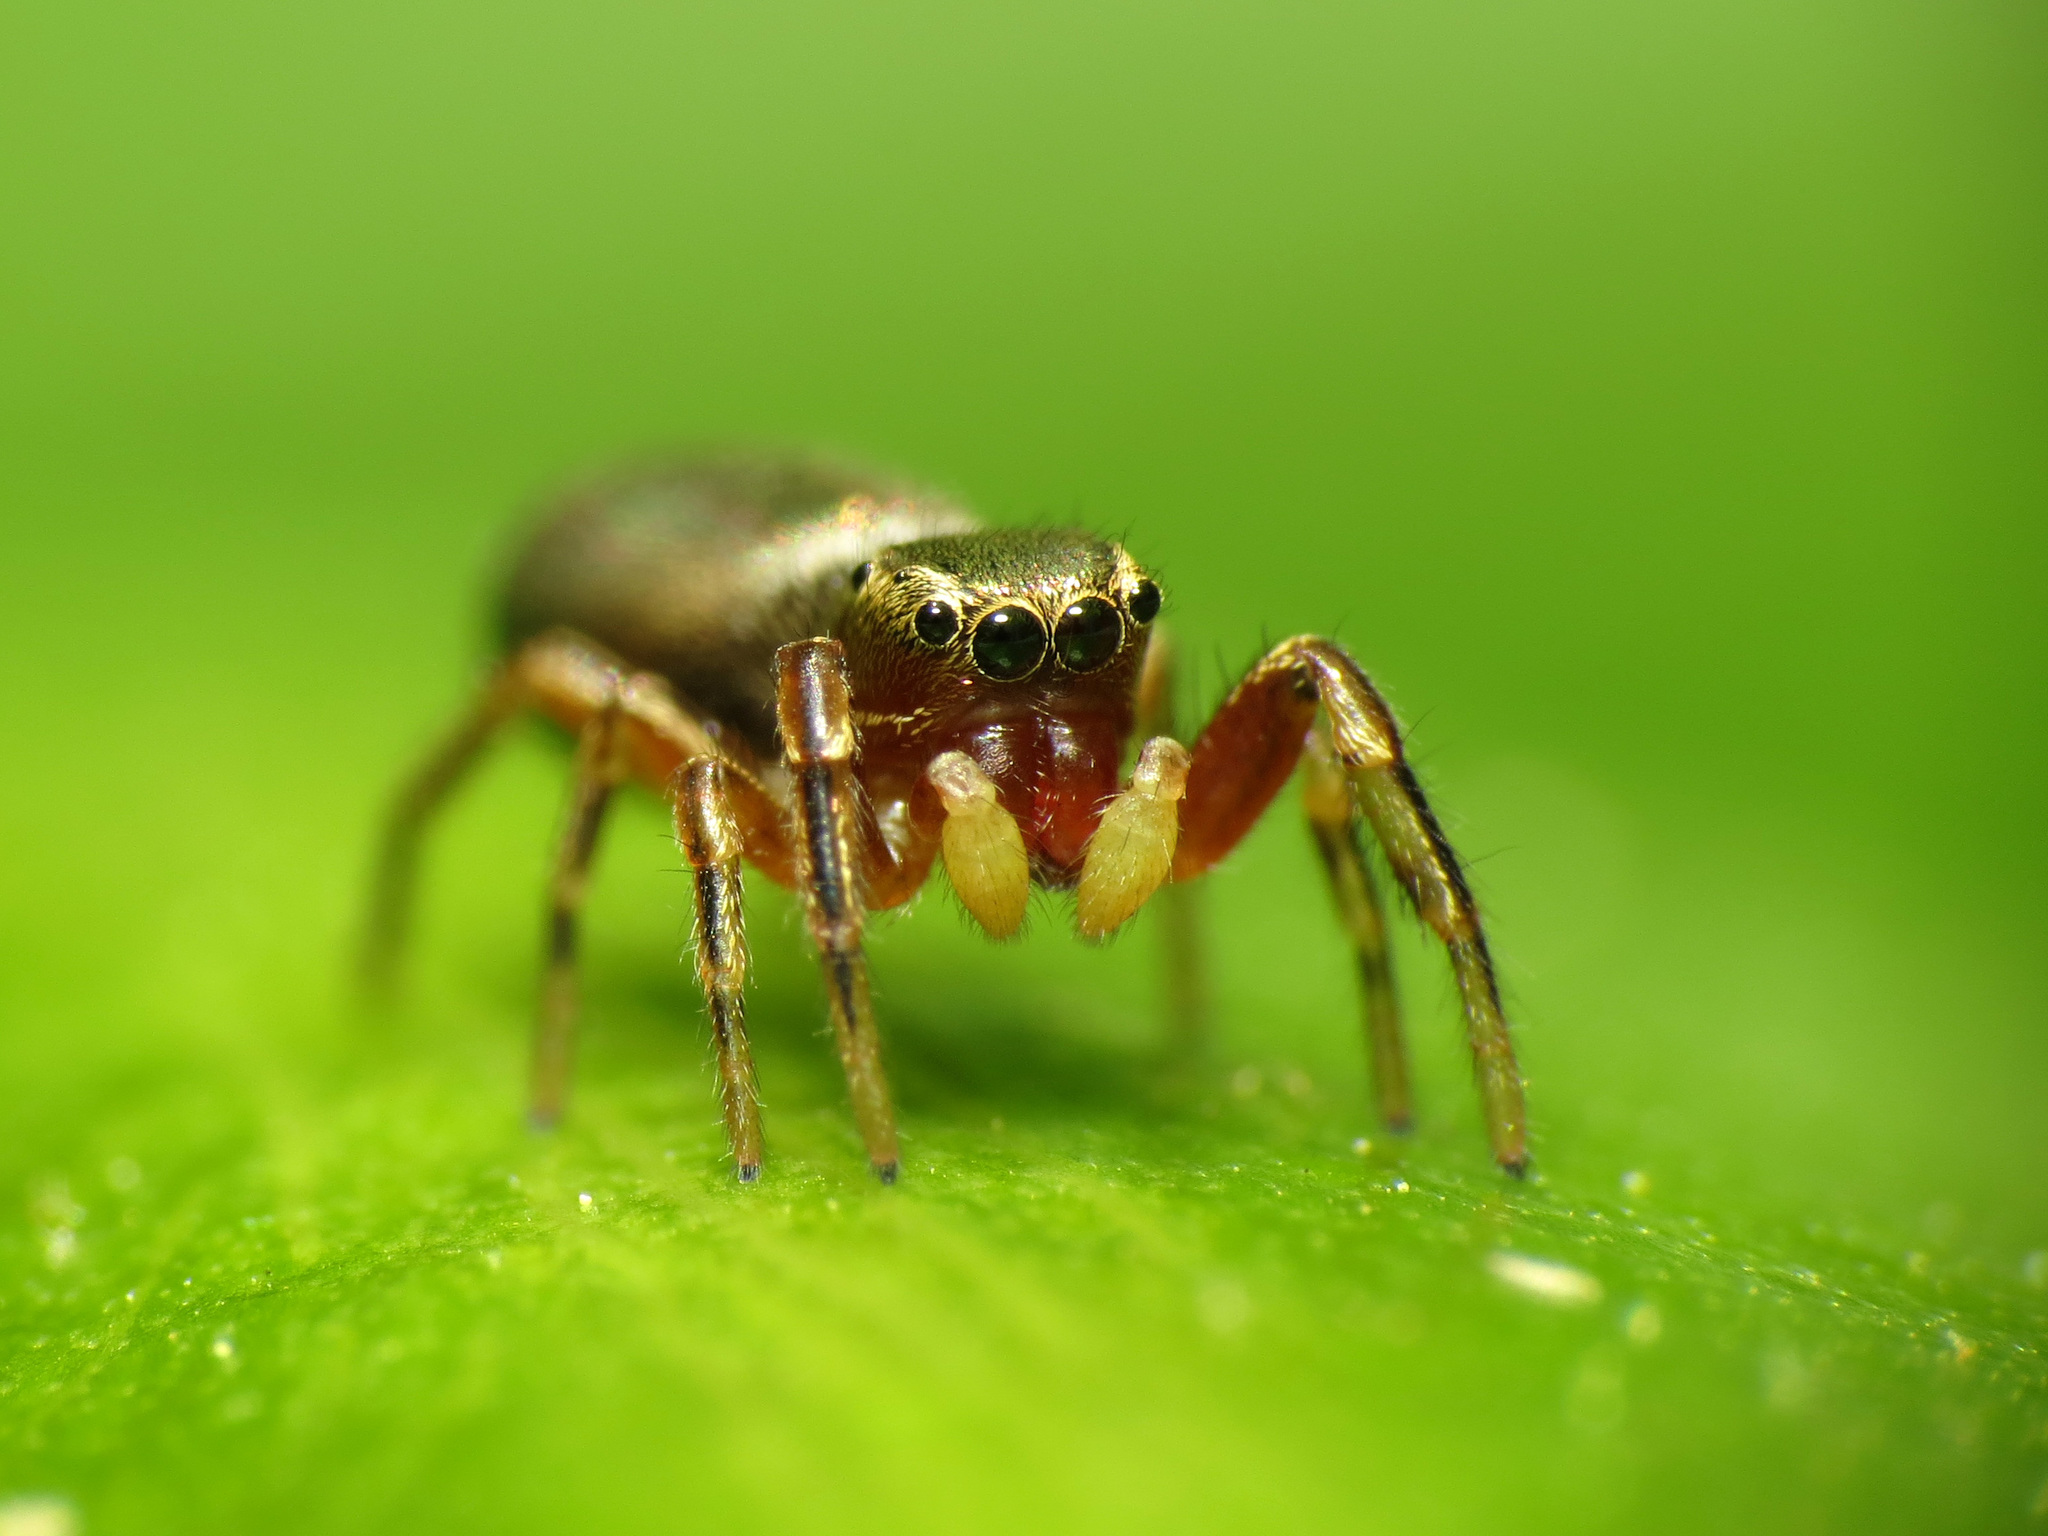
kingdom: Animalia
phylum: Arthropoda
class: Arachnida
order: Araneae
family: Salticidae
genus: Tutelina
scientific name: Tutelina elegans
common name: Thin-spined jumping spider
